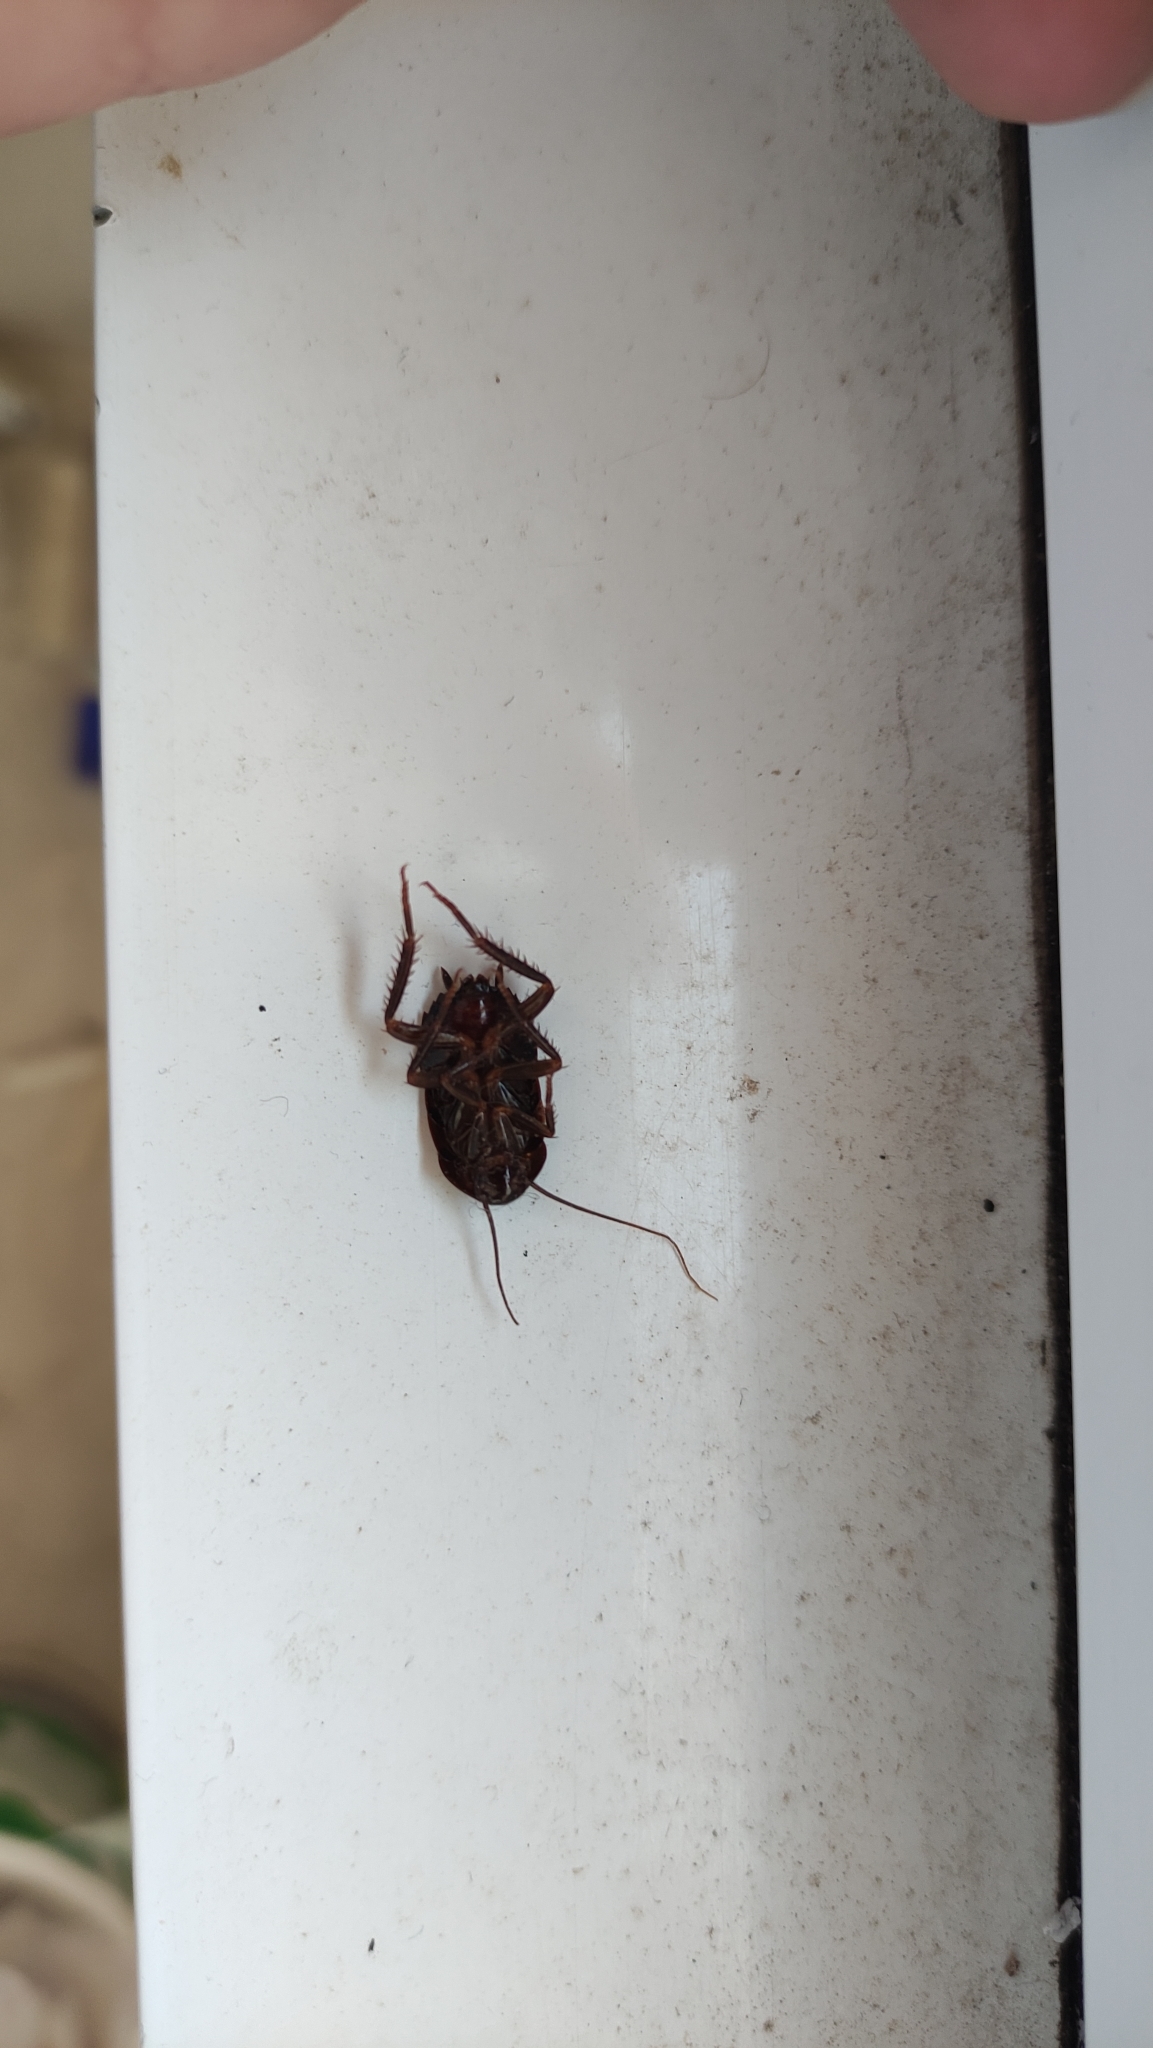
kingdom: Animalia
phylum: Arthropoda
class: Insecta
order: Blattodea
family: Blattidae
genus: Blatta
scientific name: Blatta orientalis
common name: Oriental cockroach
